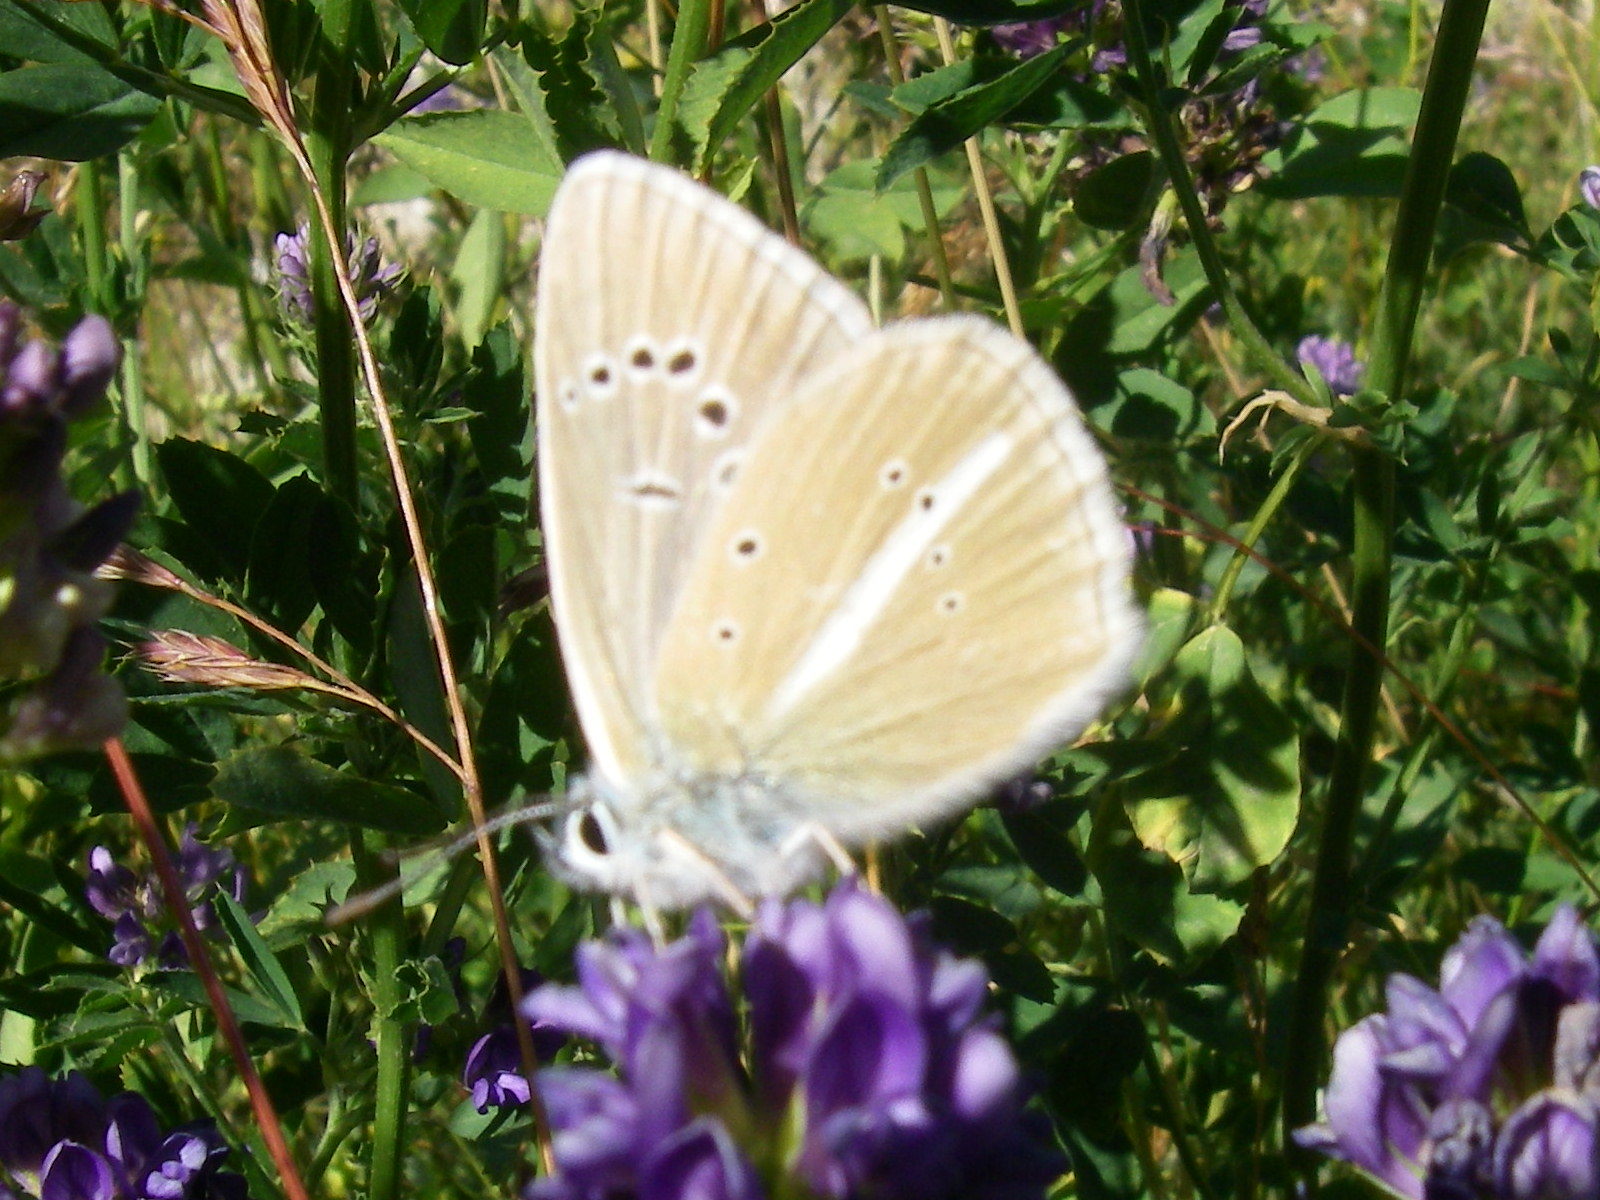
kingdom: Animalia
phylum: Arthropoda
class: Insecta
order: Lepidoptera
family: Lycaenidae
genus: Agrodiaetus
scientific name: Agrodiaetus damon
